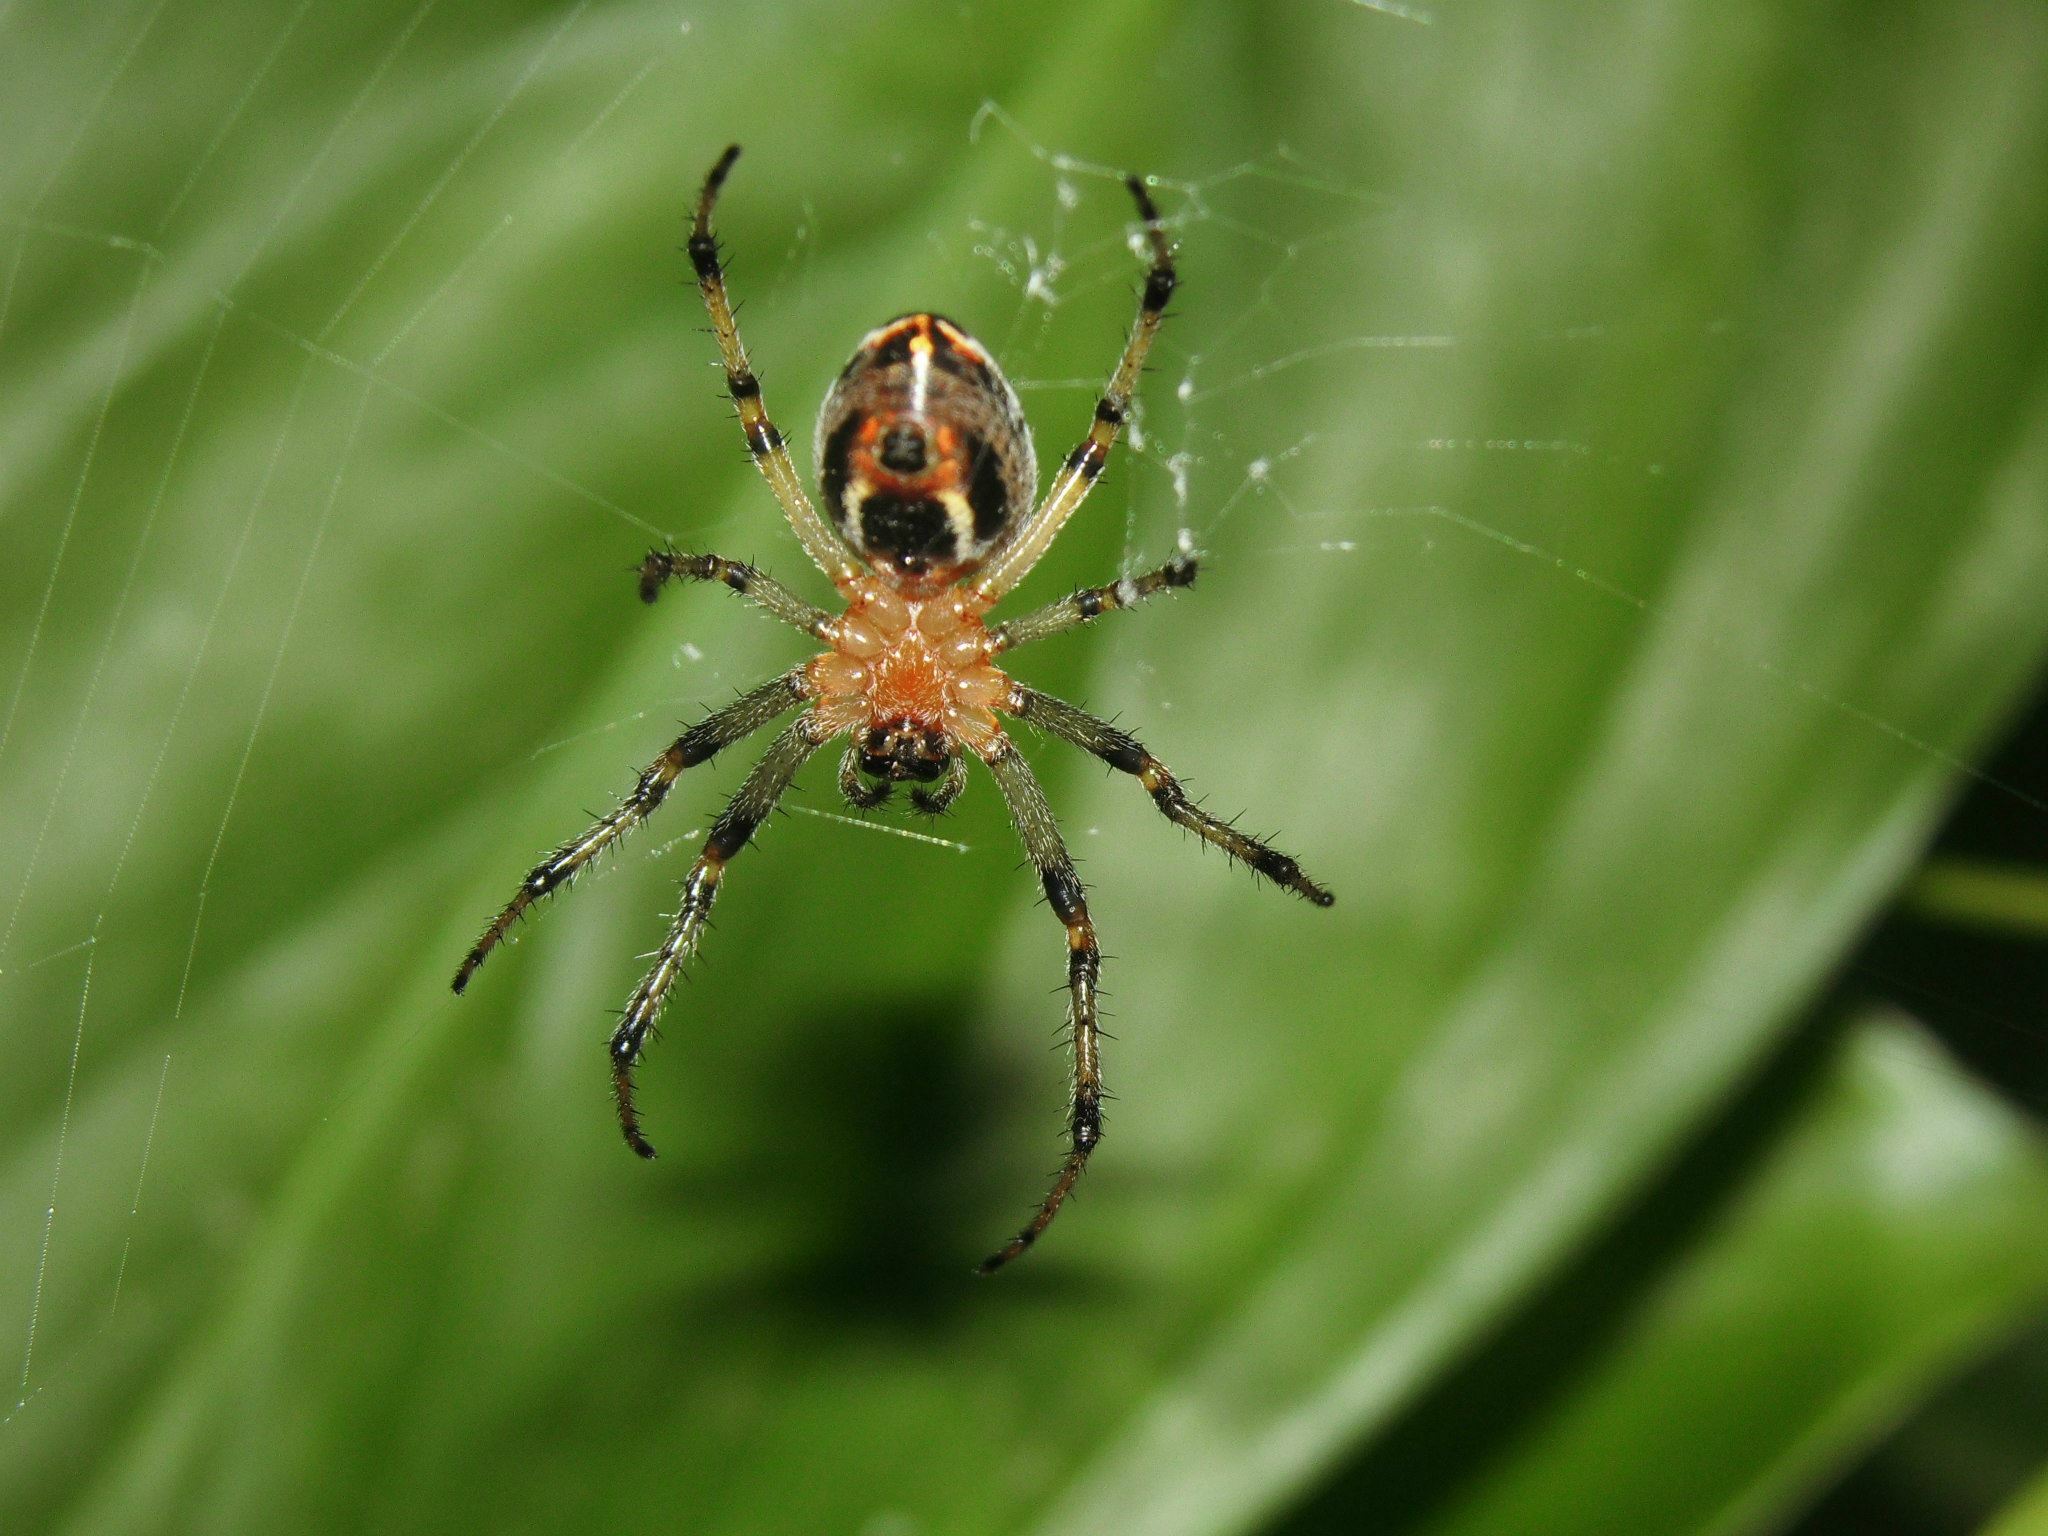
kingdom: Animalia
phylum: Arthropoda
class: Arachnida
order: Araneae
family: Araneidae
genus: Alpaida
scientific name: Alpaida veniliae
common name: Orb weavers
